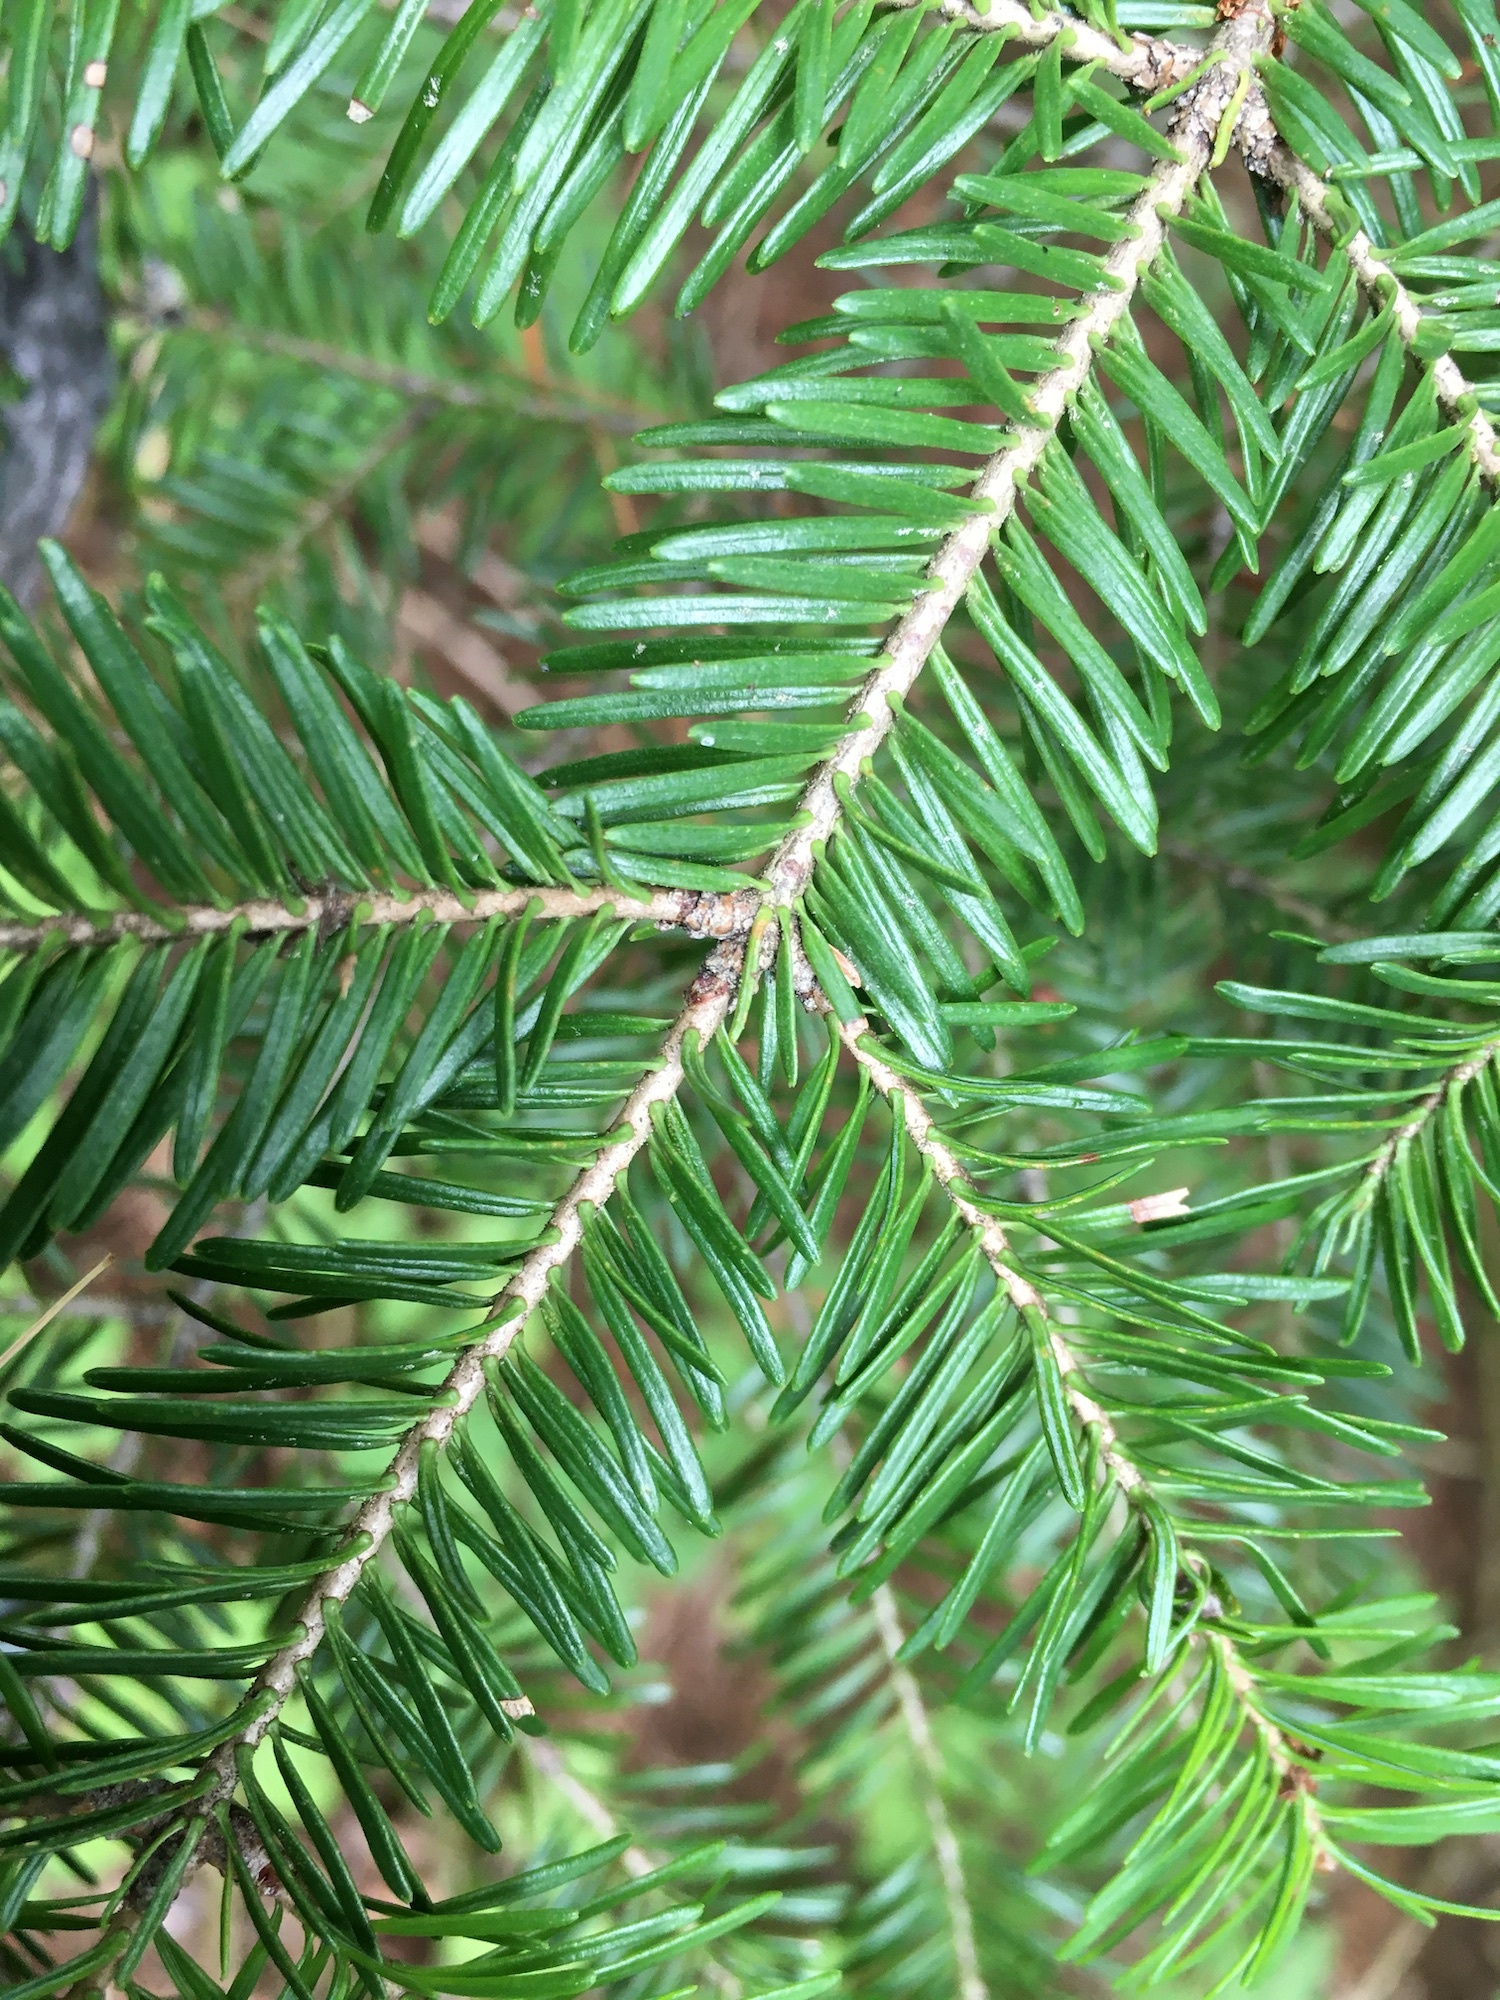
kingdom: Plantae
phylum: Tracheophyta
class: Pinopsida
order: Pinales
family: Pinaceae
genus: Abies
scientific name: Abies balsamea
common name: Balsam fir
